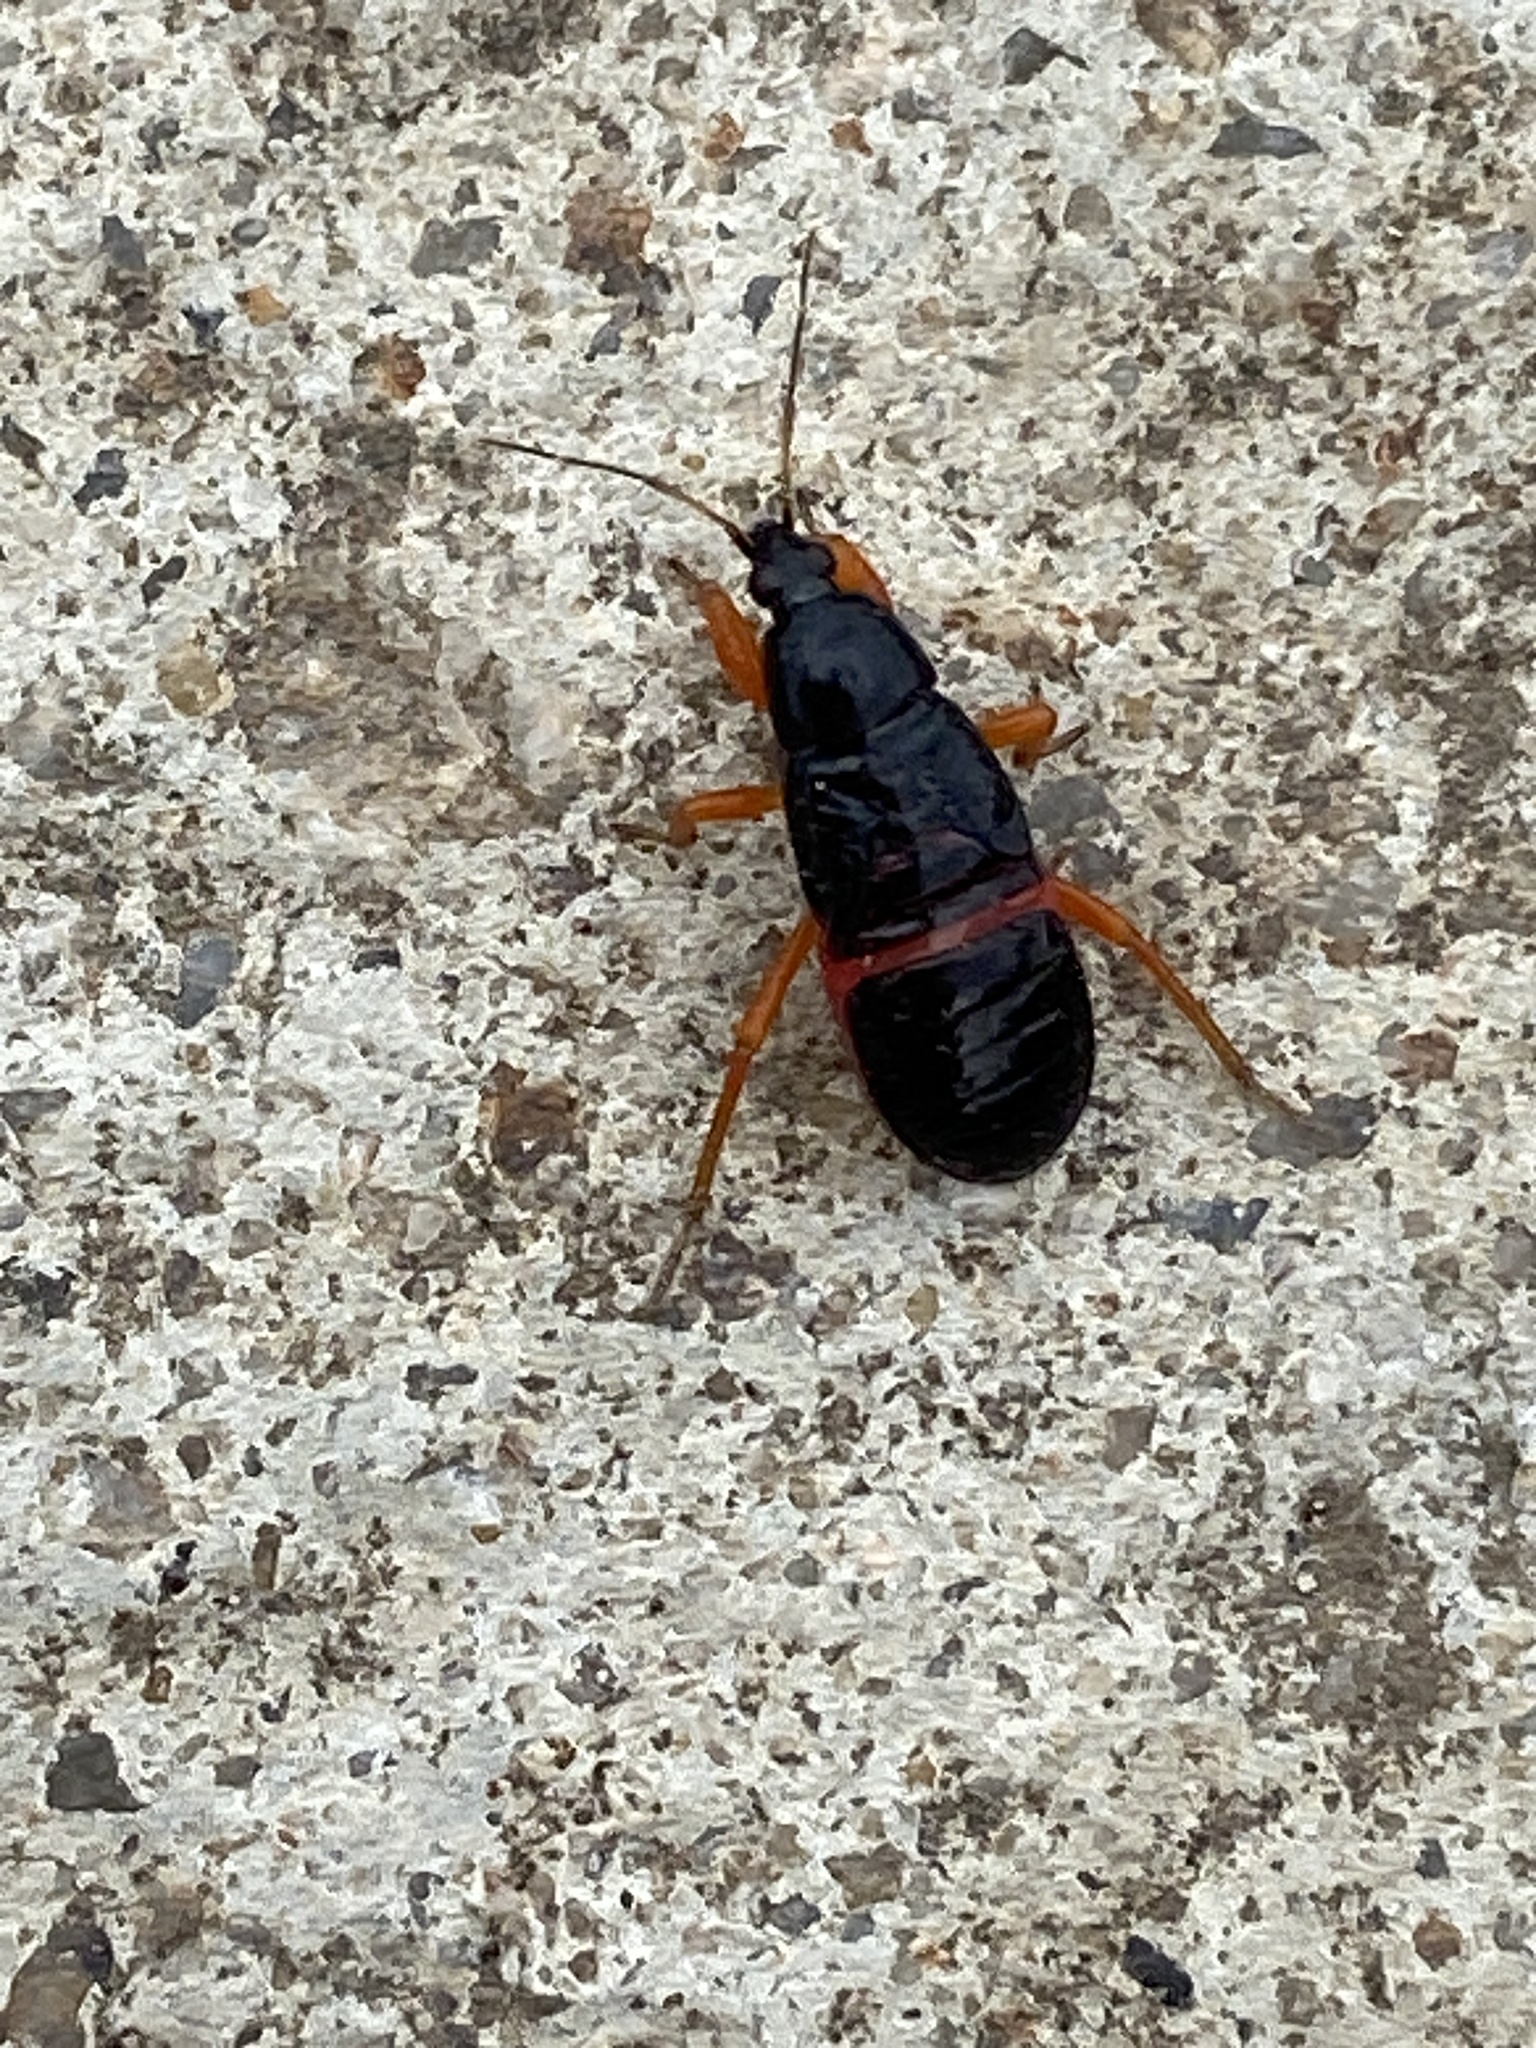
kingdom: Animalia
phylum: Arthropoda
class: Insecta
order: Hemiptera
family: Nabidae
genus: Prostemma
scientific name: Prostemma guttula
